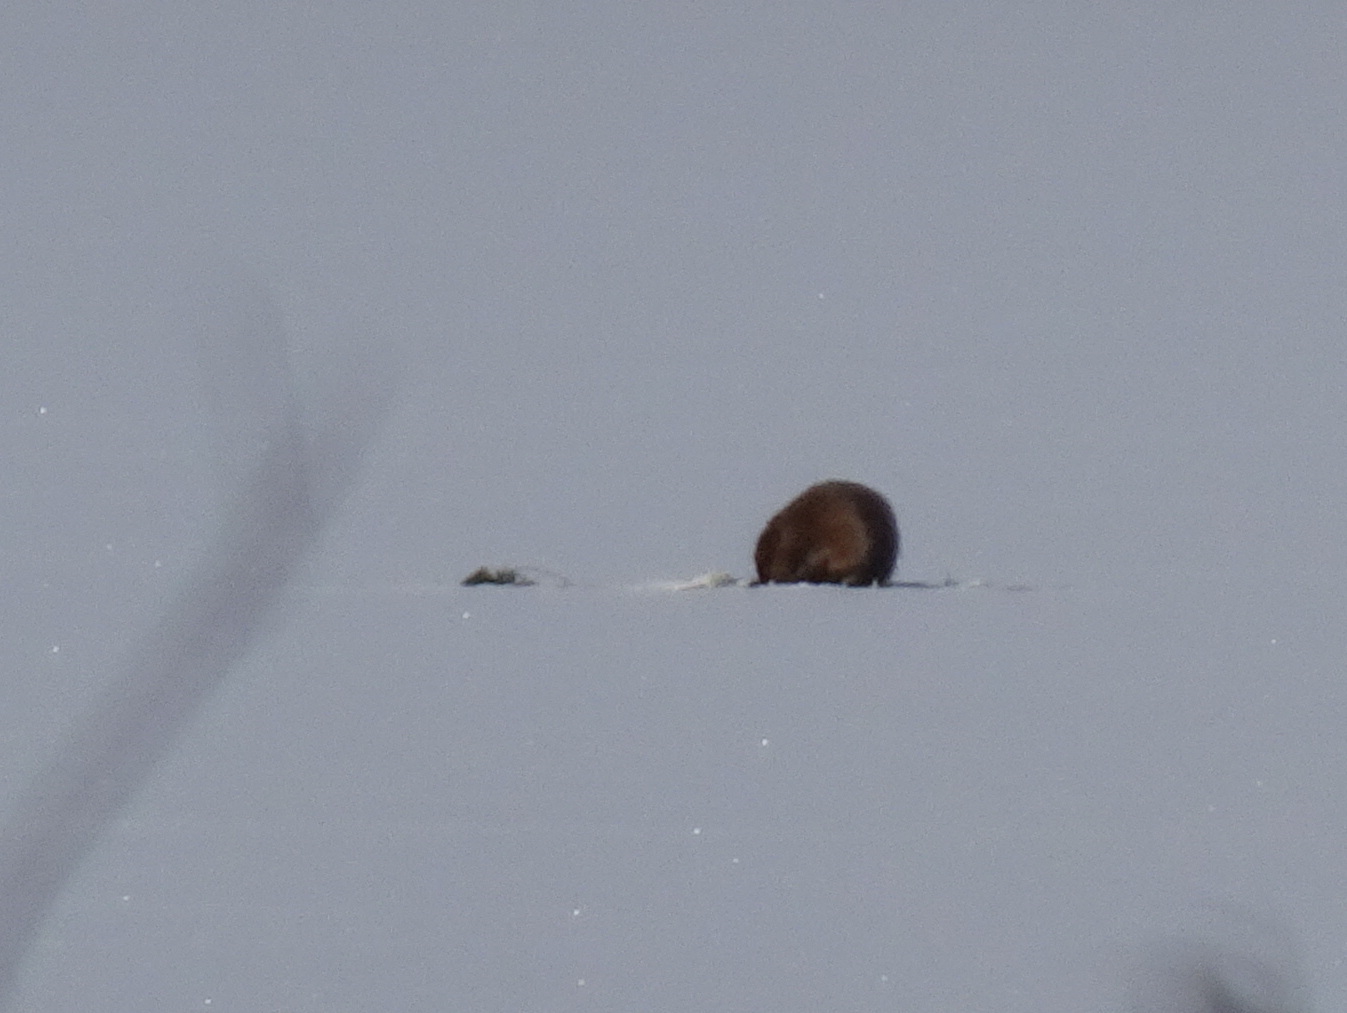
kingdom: Animalia
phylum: Chordata
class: Mammalia
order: Rodentia
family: Cricetidae
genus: Ondatra
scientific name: Ondatra zibethicus
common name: Muskrat
